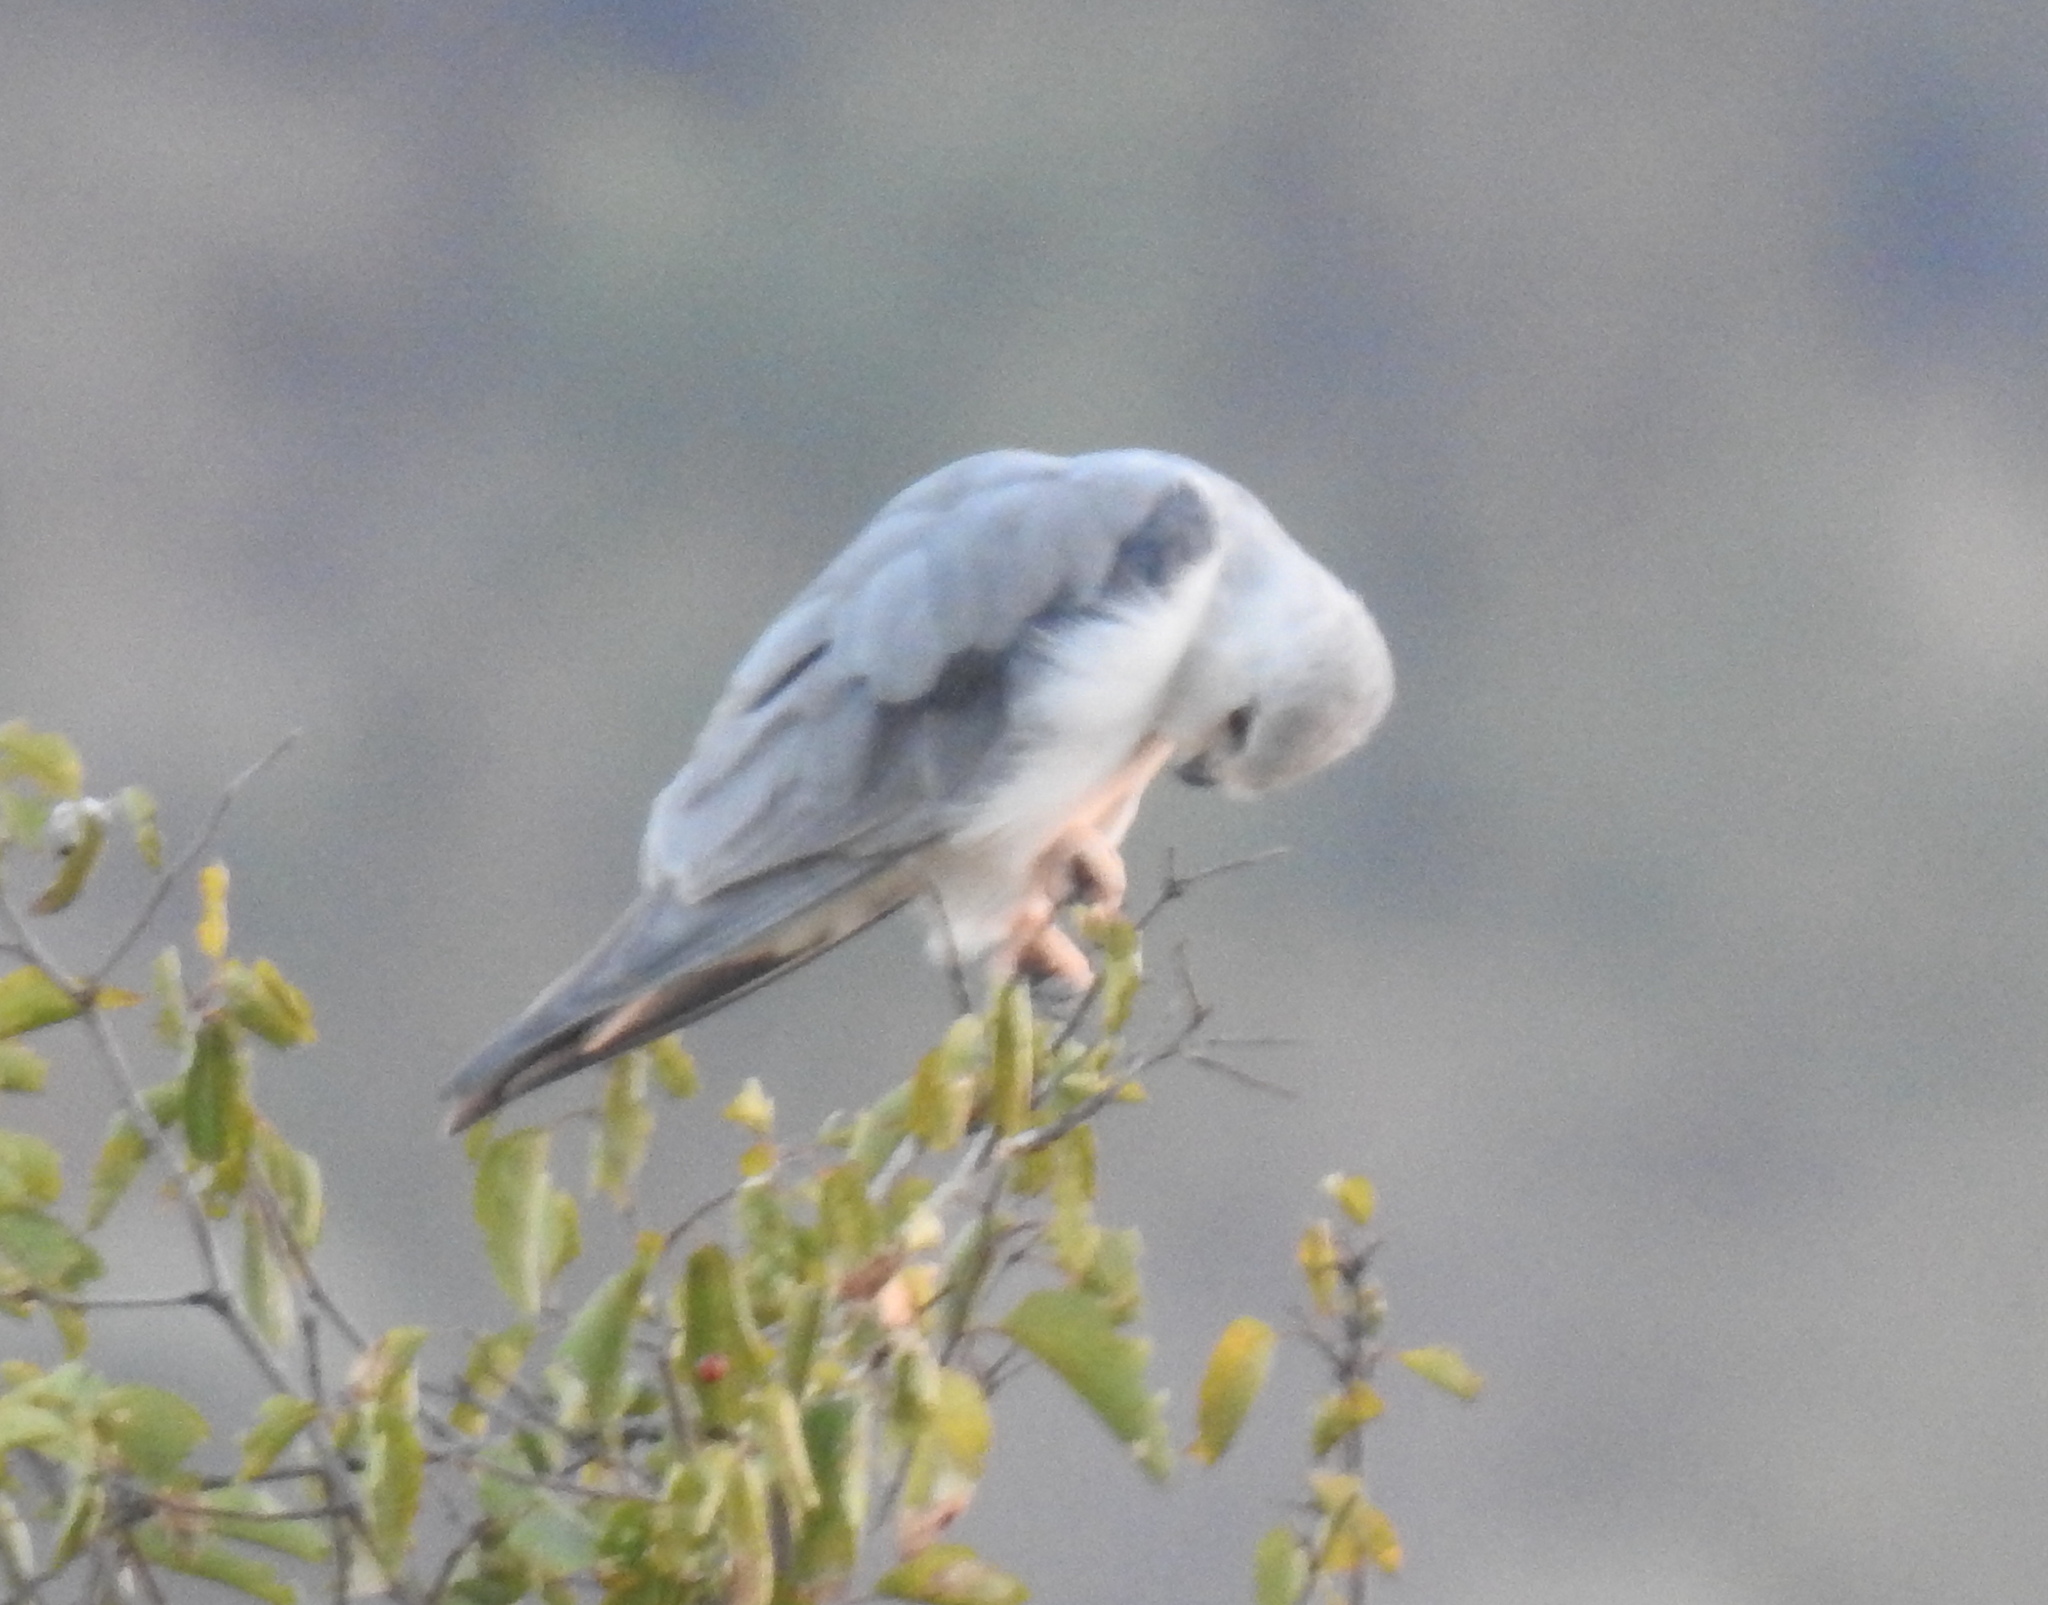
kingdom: Animalia
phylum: Chordata
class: Aves
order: Accipitriformes
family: Accipitridae
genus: Elanus
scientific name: Elanus caeruleus
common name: Black-winged kite
